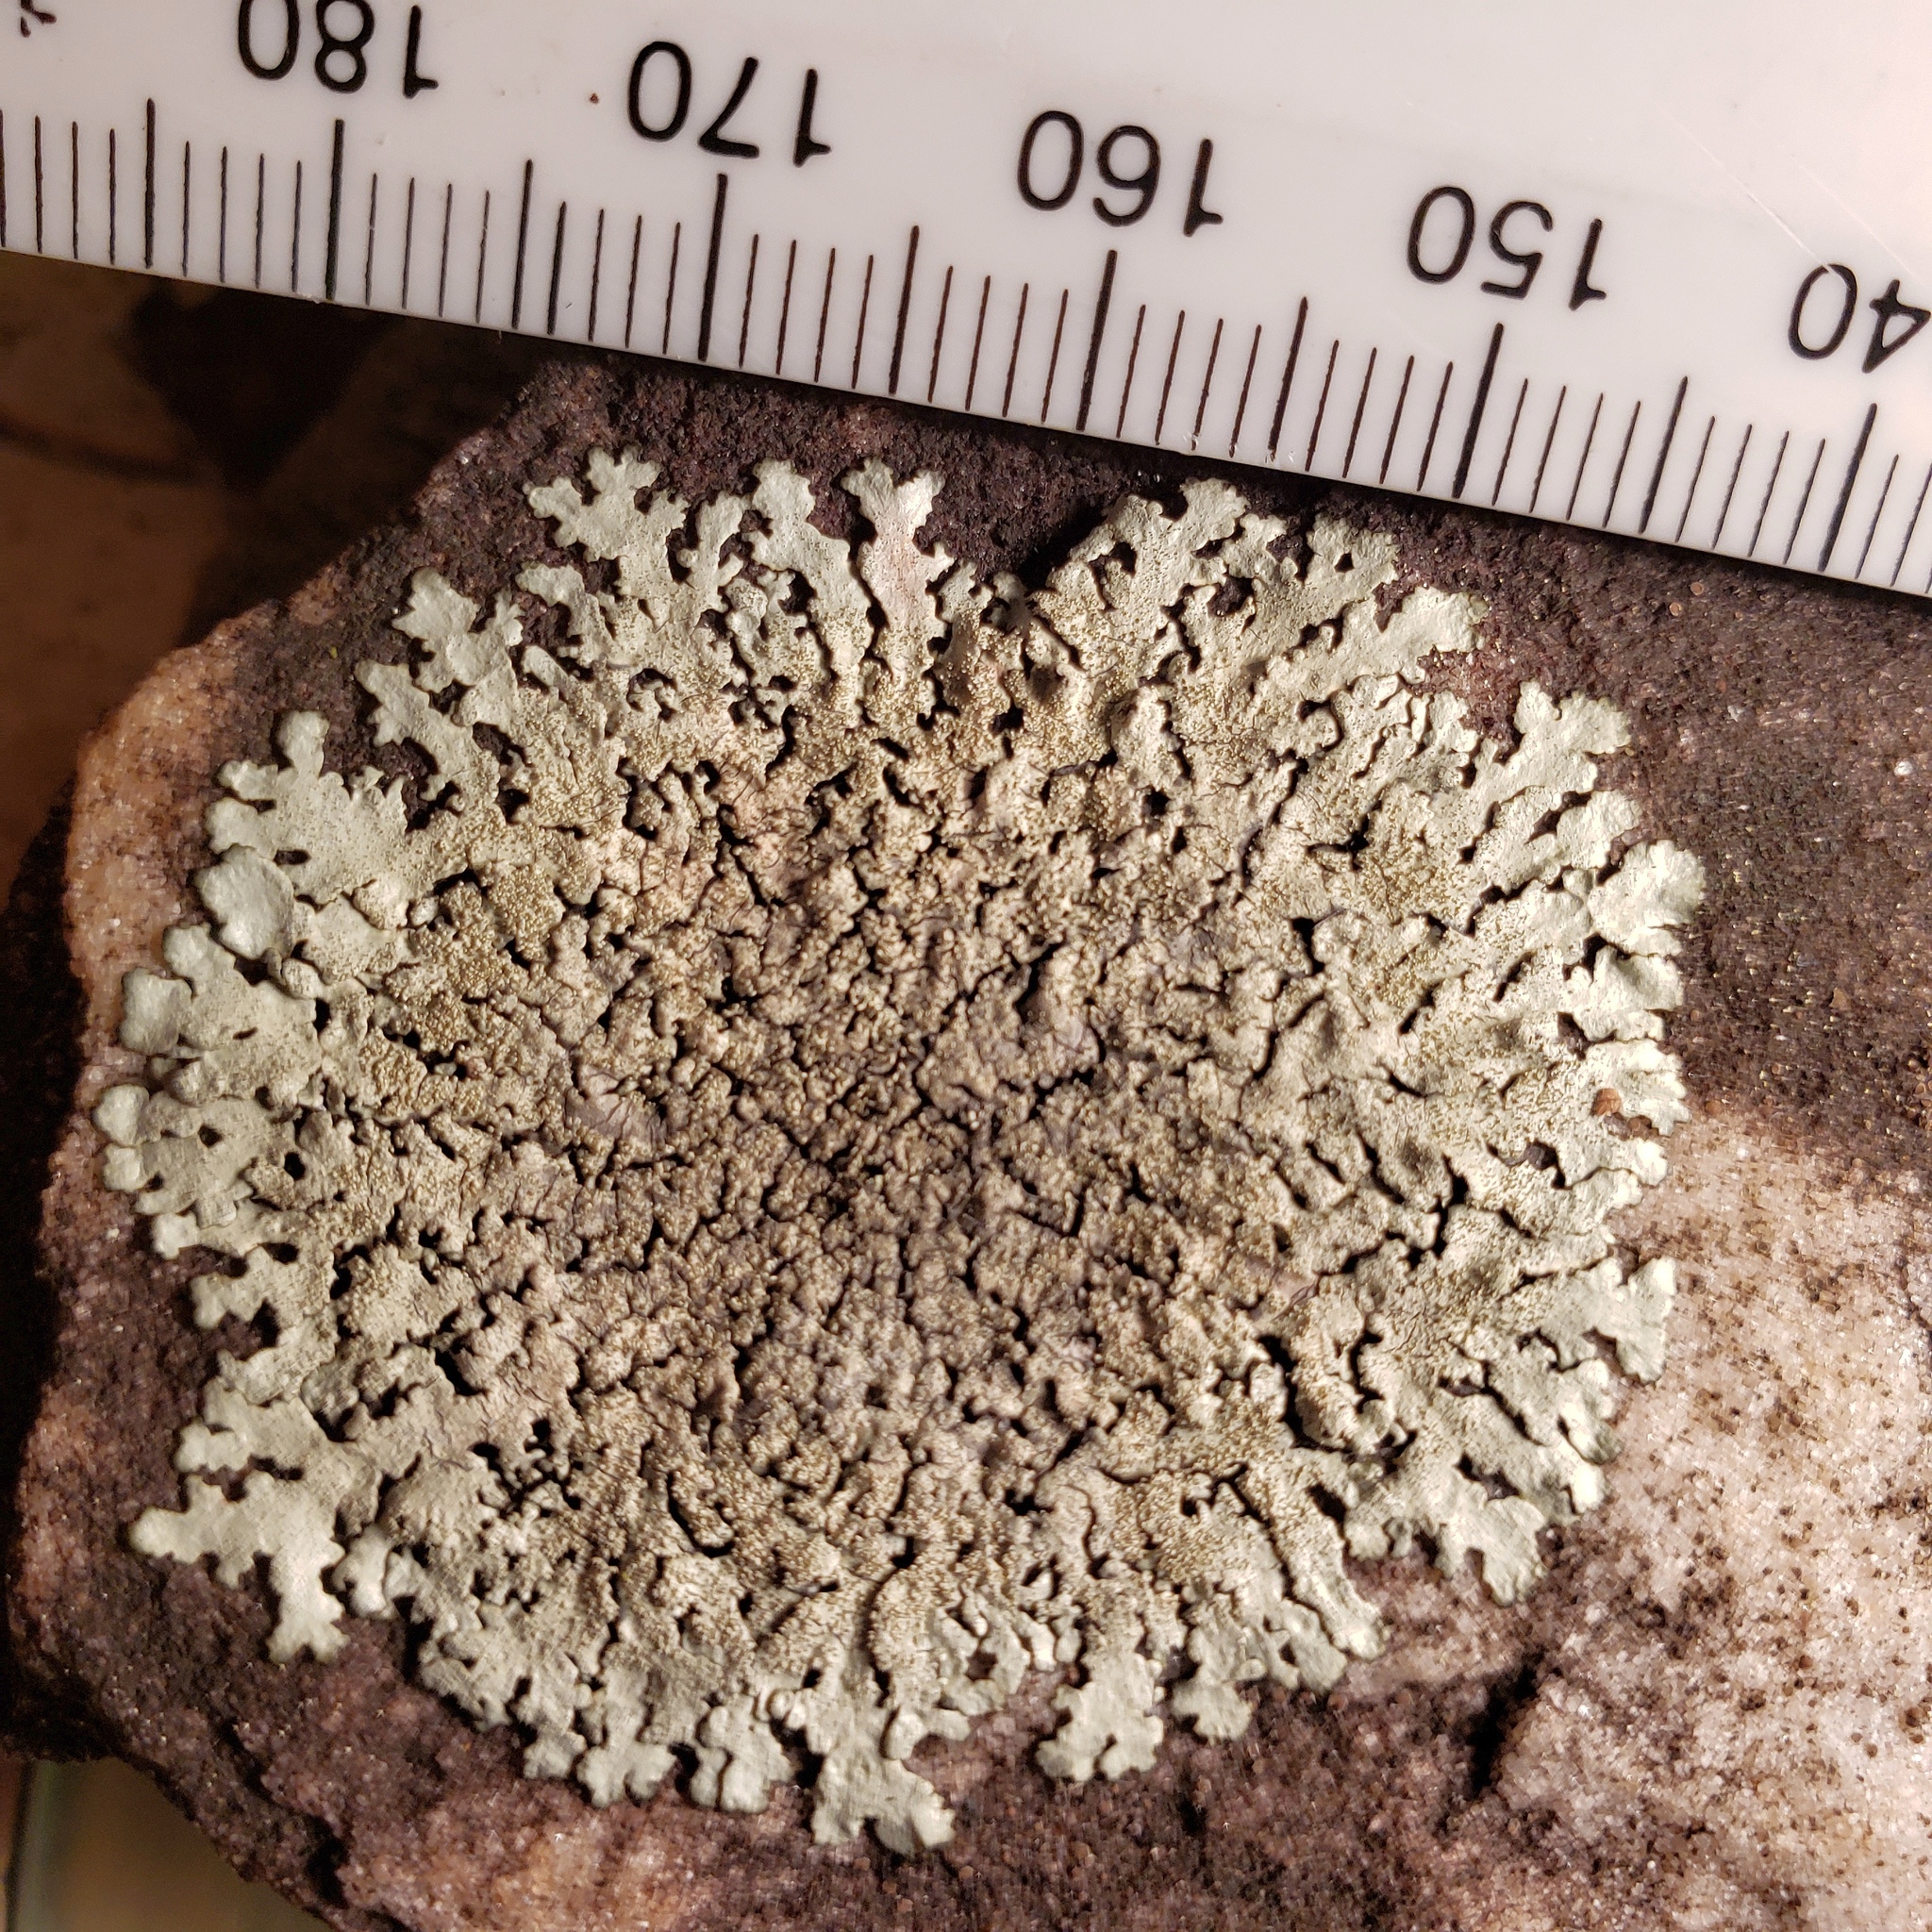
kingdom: Fungi
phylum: Ascomycota
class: Lecanoromycetes
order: Lecanorales
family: Parmeliaceae
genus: Xanthoparmelia
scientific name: Xanthoparmelia plittii
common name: Plitt's rock shield
